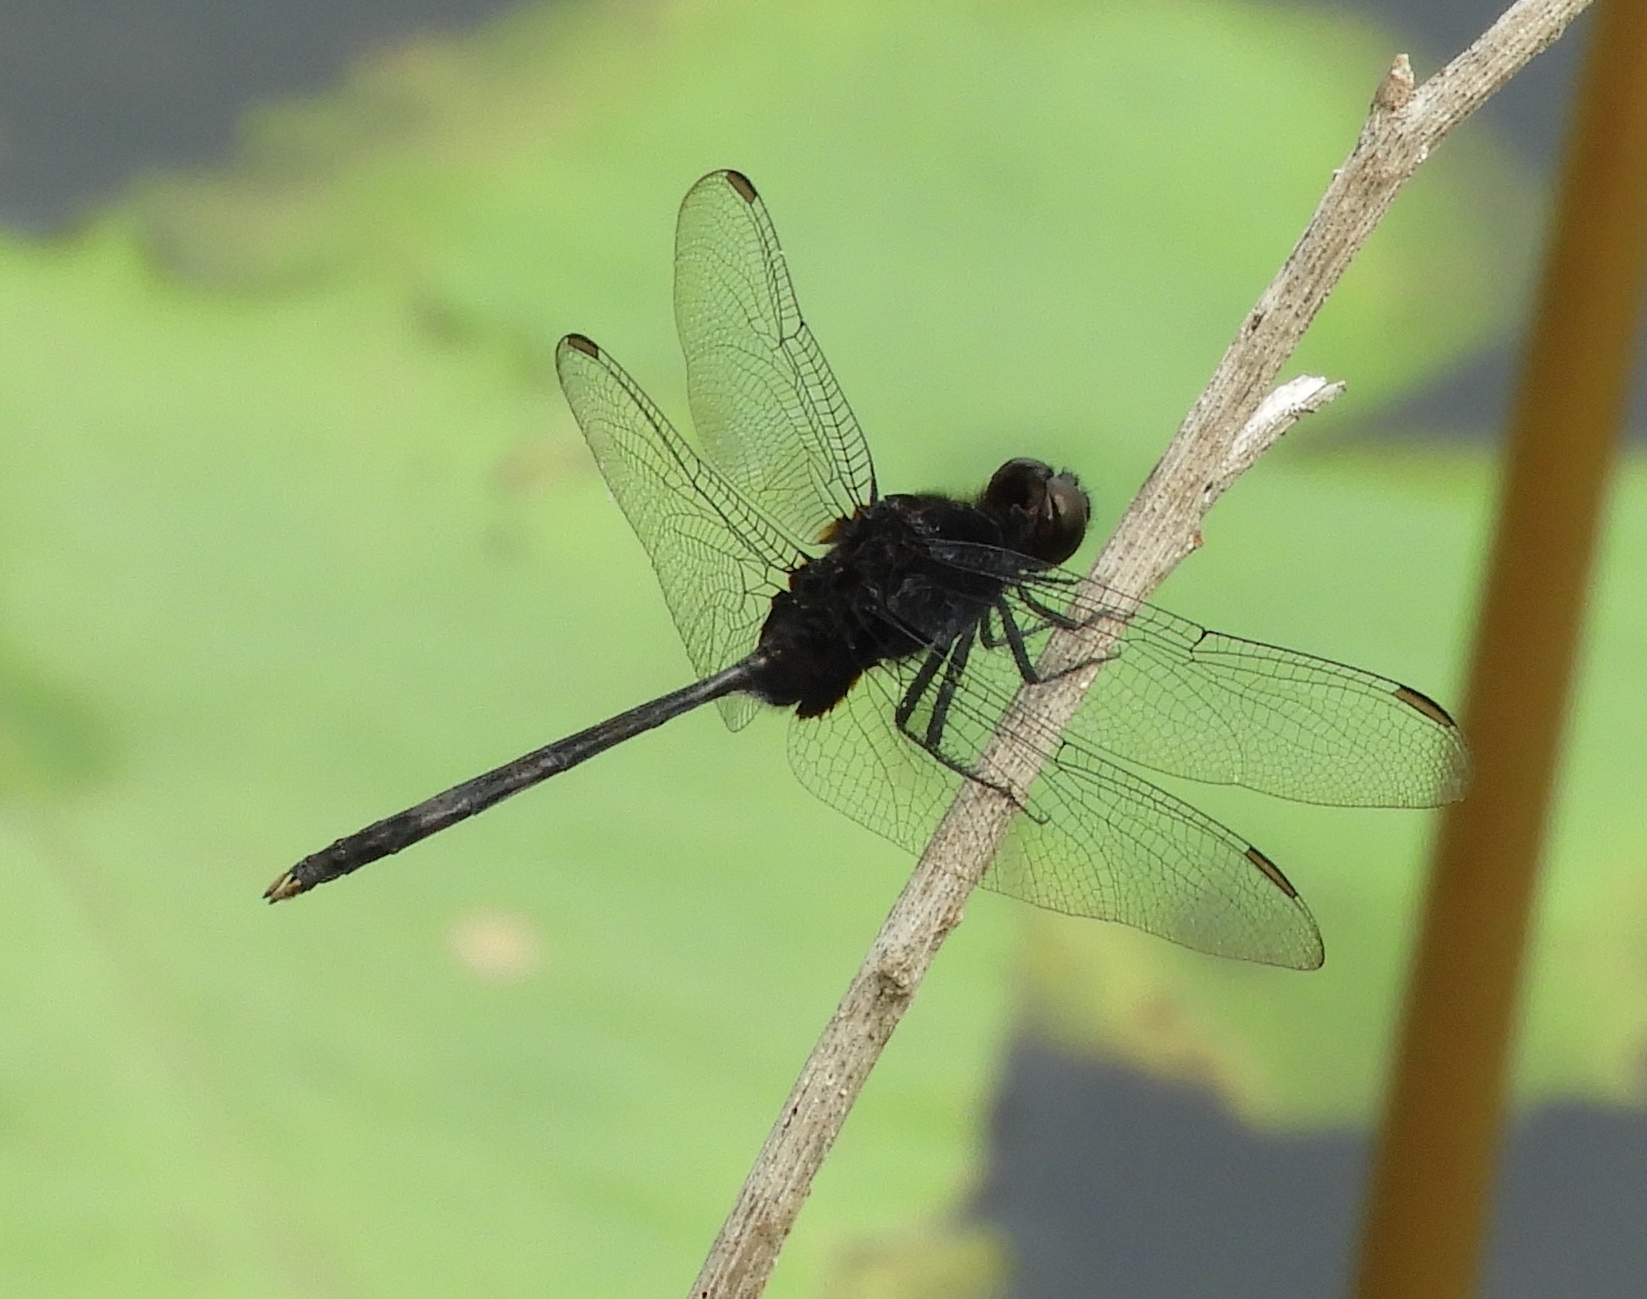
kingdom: Animalia
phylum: Arthropoda
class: Insecta
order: Odonata
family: Libellulidae
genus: Erythemis
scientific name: Erythemis plebeja
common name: Pin-tailed pondhawk
